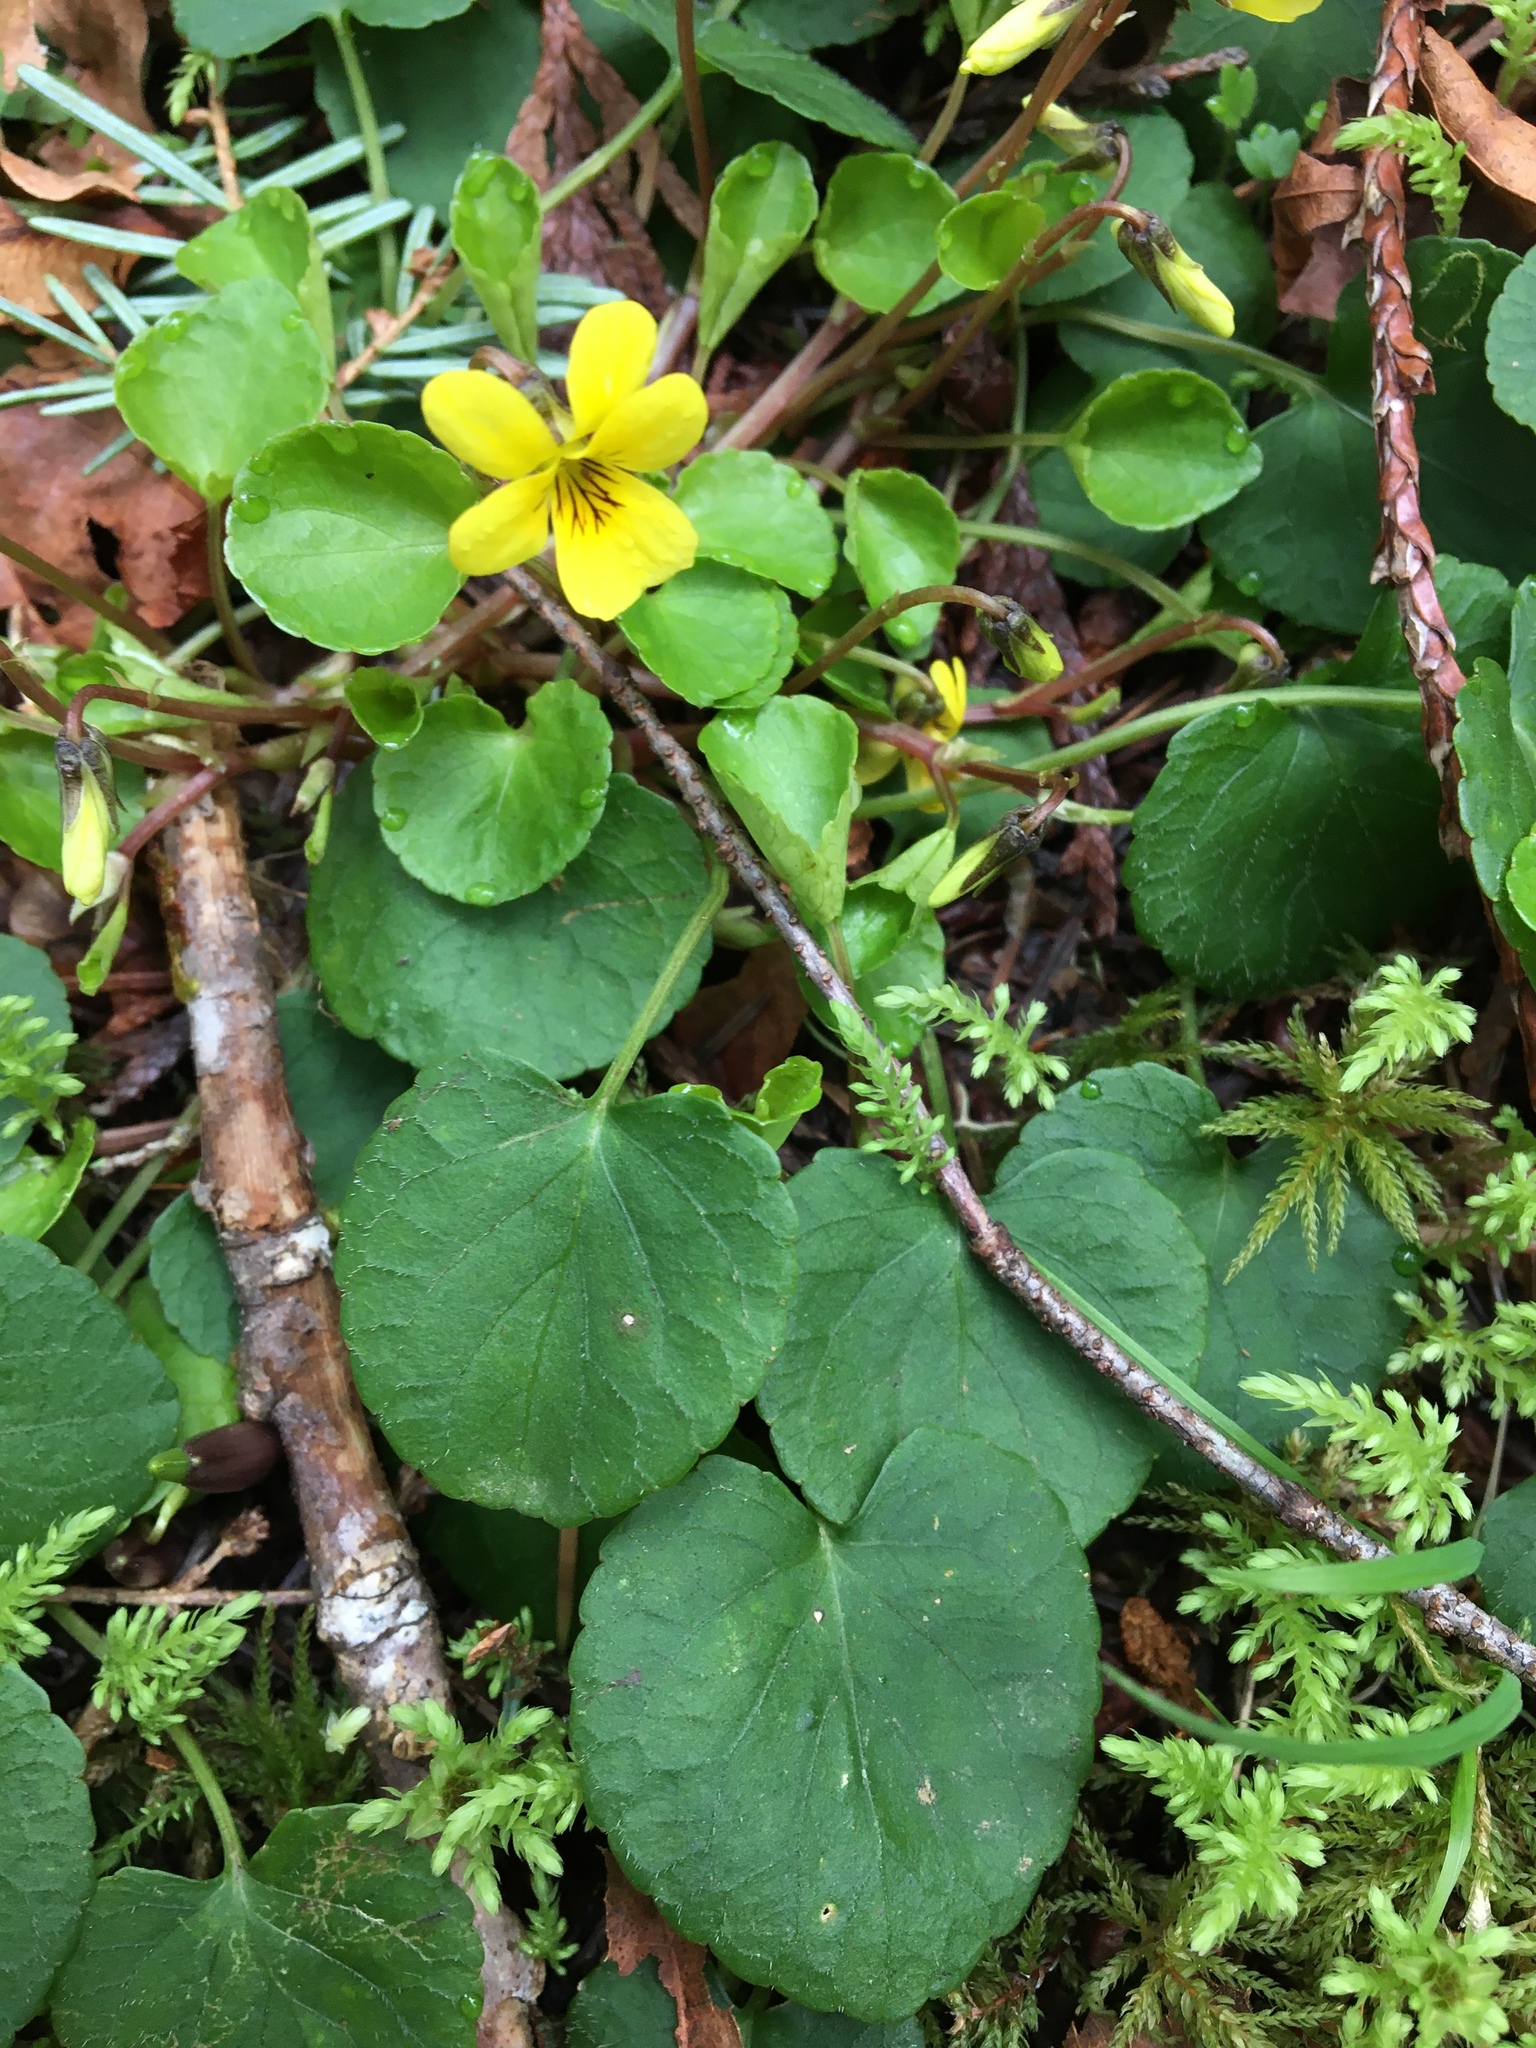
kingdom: Plantae
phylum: Tracheophyta
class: Magnoliopsida
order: Malpighiales
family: Violaceae
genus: Viola
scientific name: Viola sempervirens
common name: Evergreen violet
